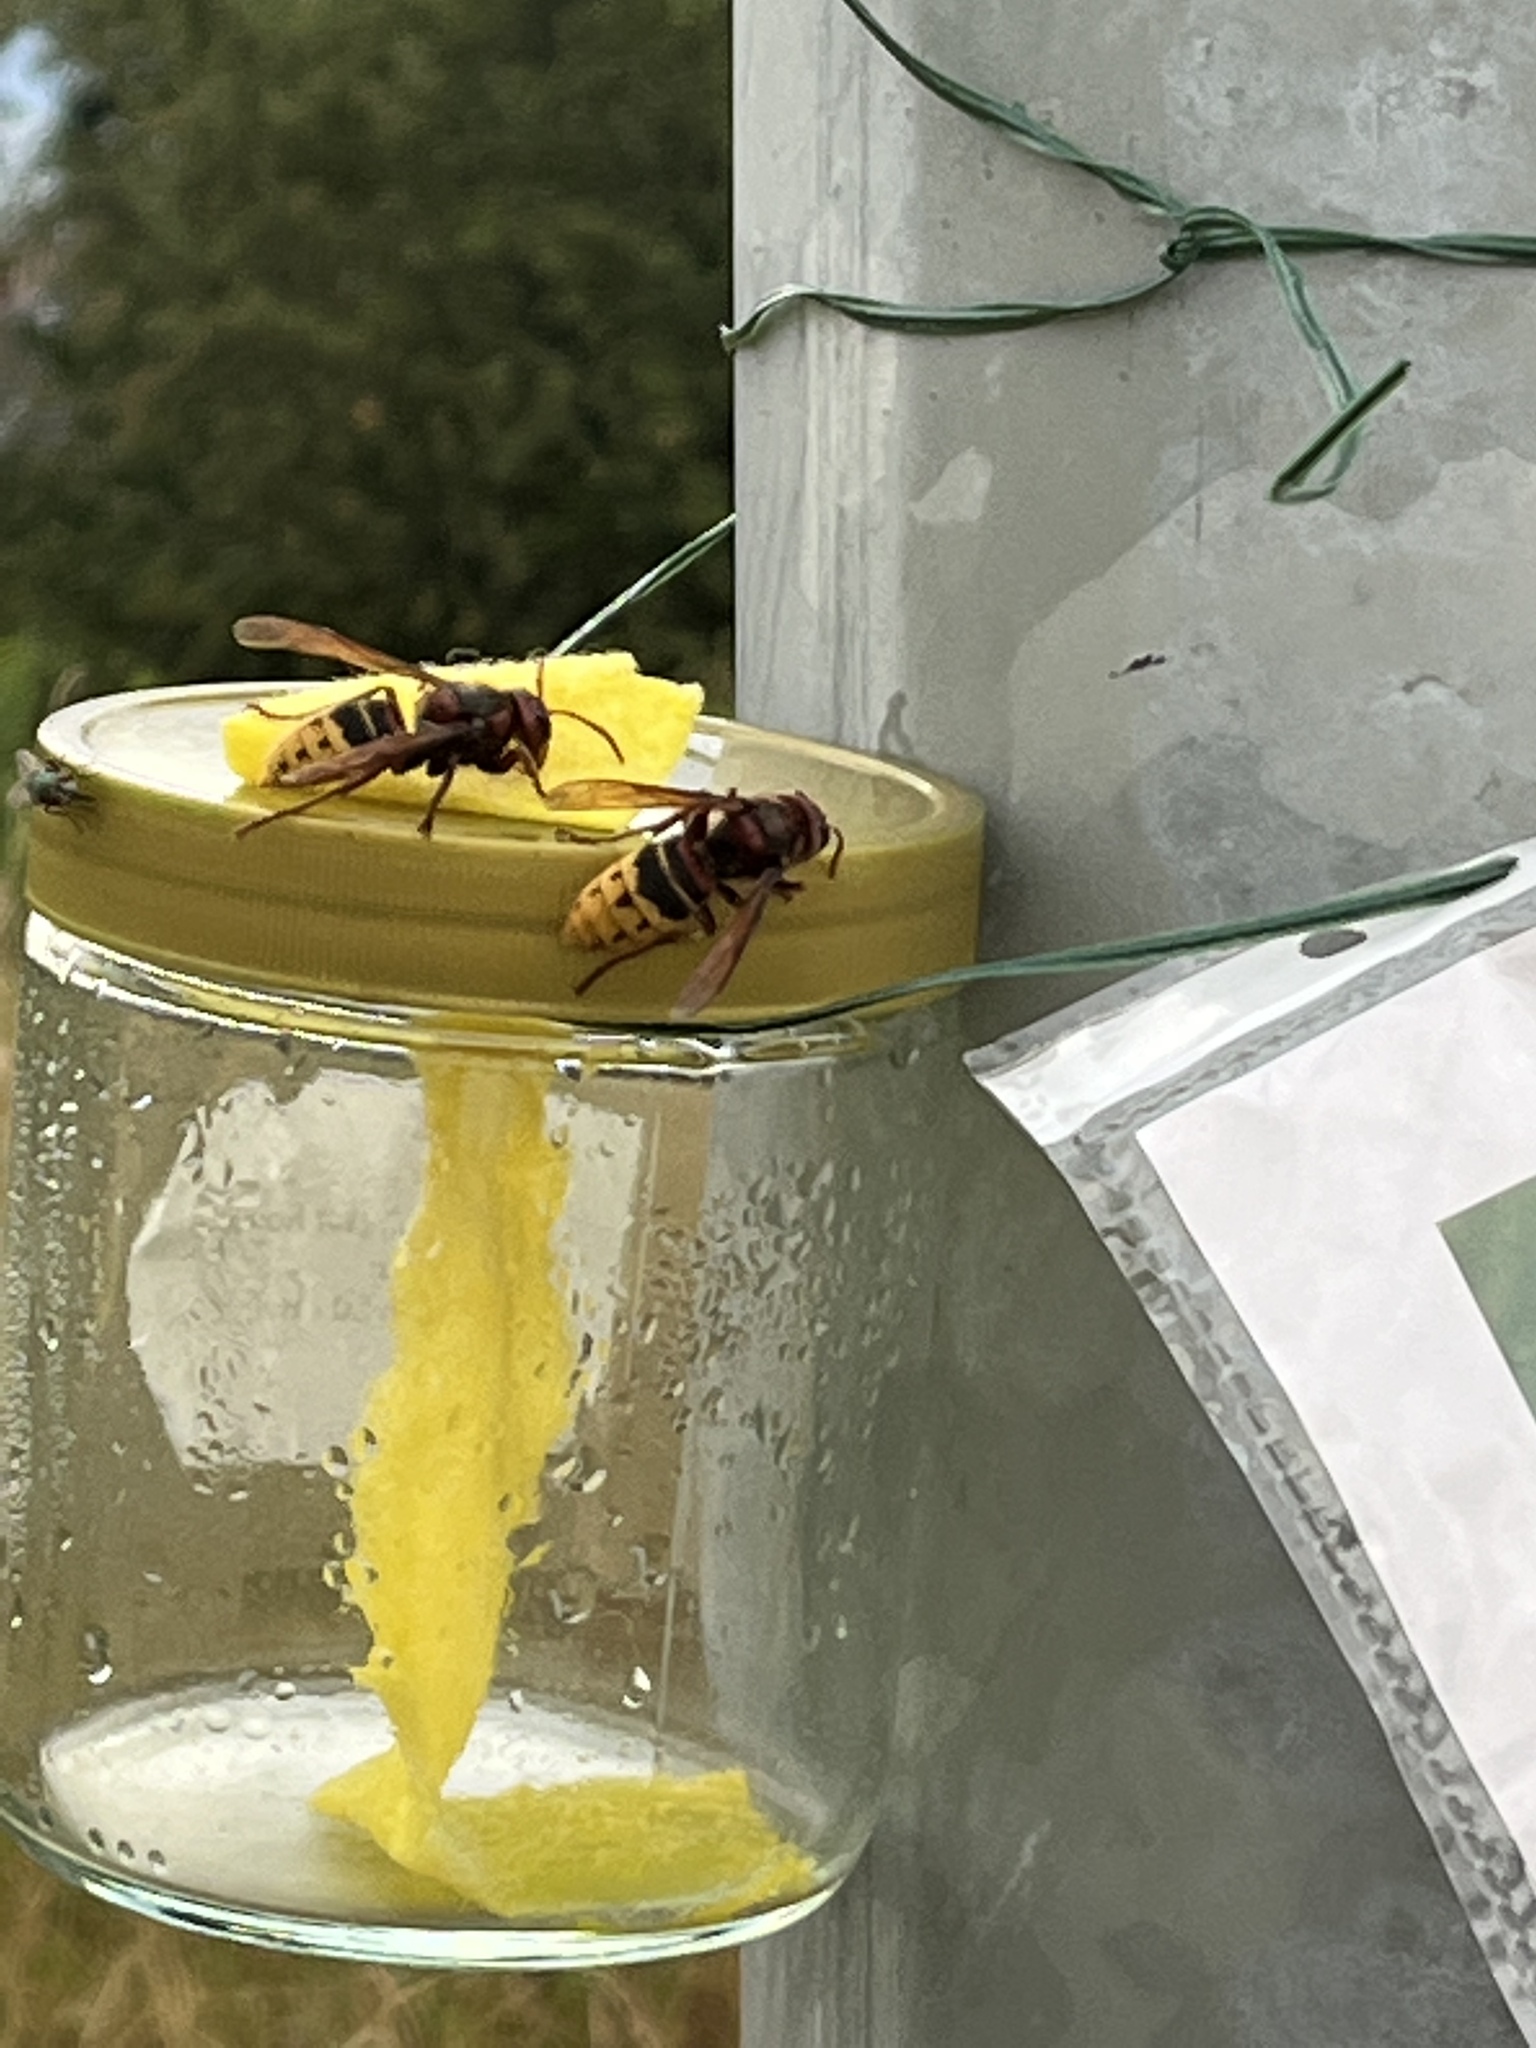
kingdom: Animalia
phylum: Arthropoda
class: Insecta
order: Hymenoptera
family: Vespidae
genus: Vespa
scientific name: Vespa crabro
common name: Hornet
